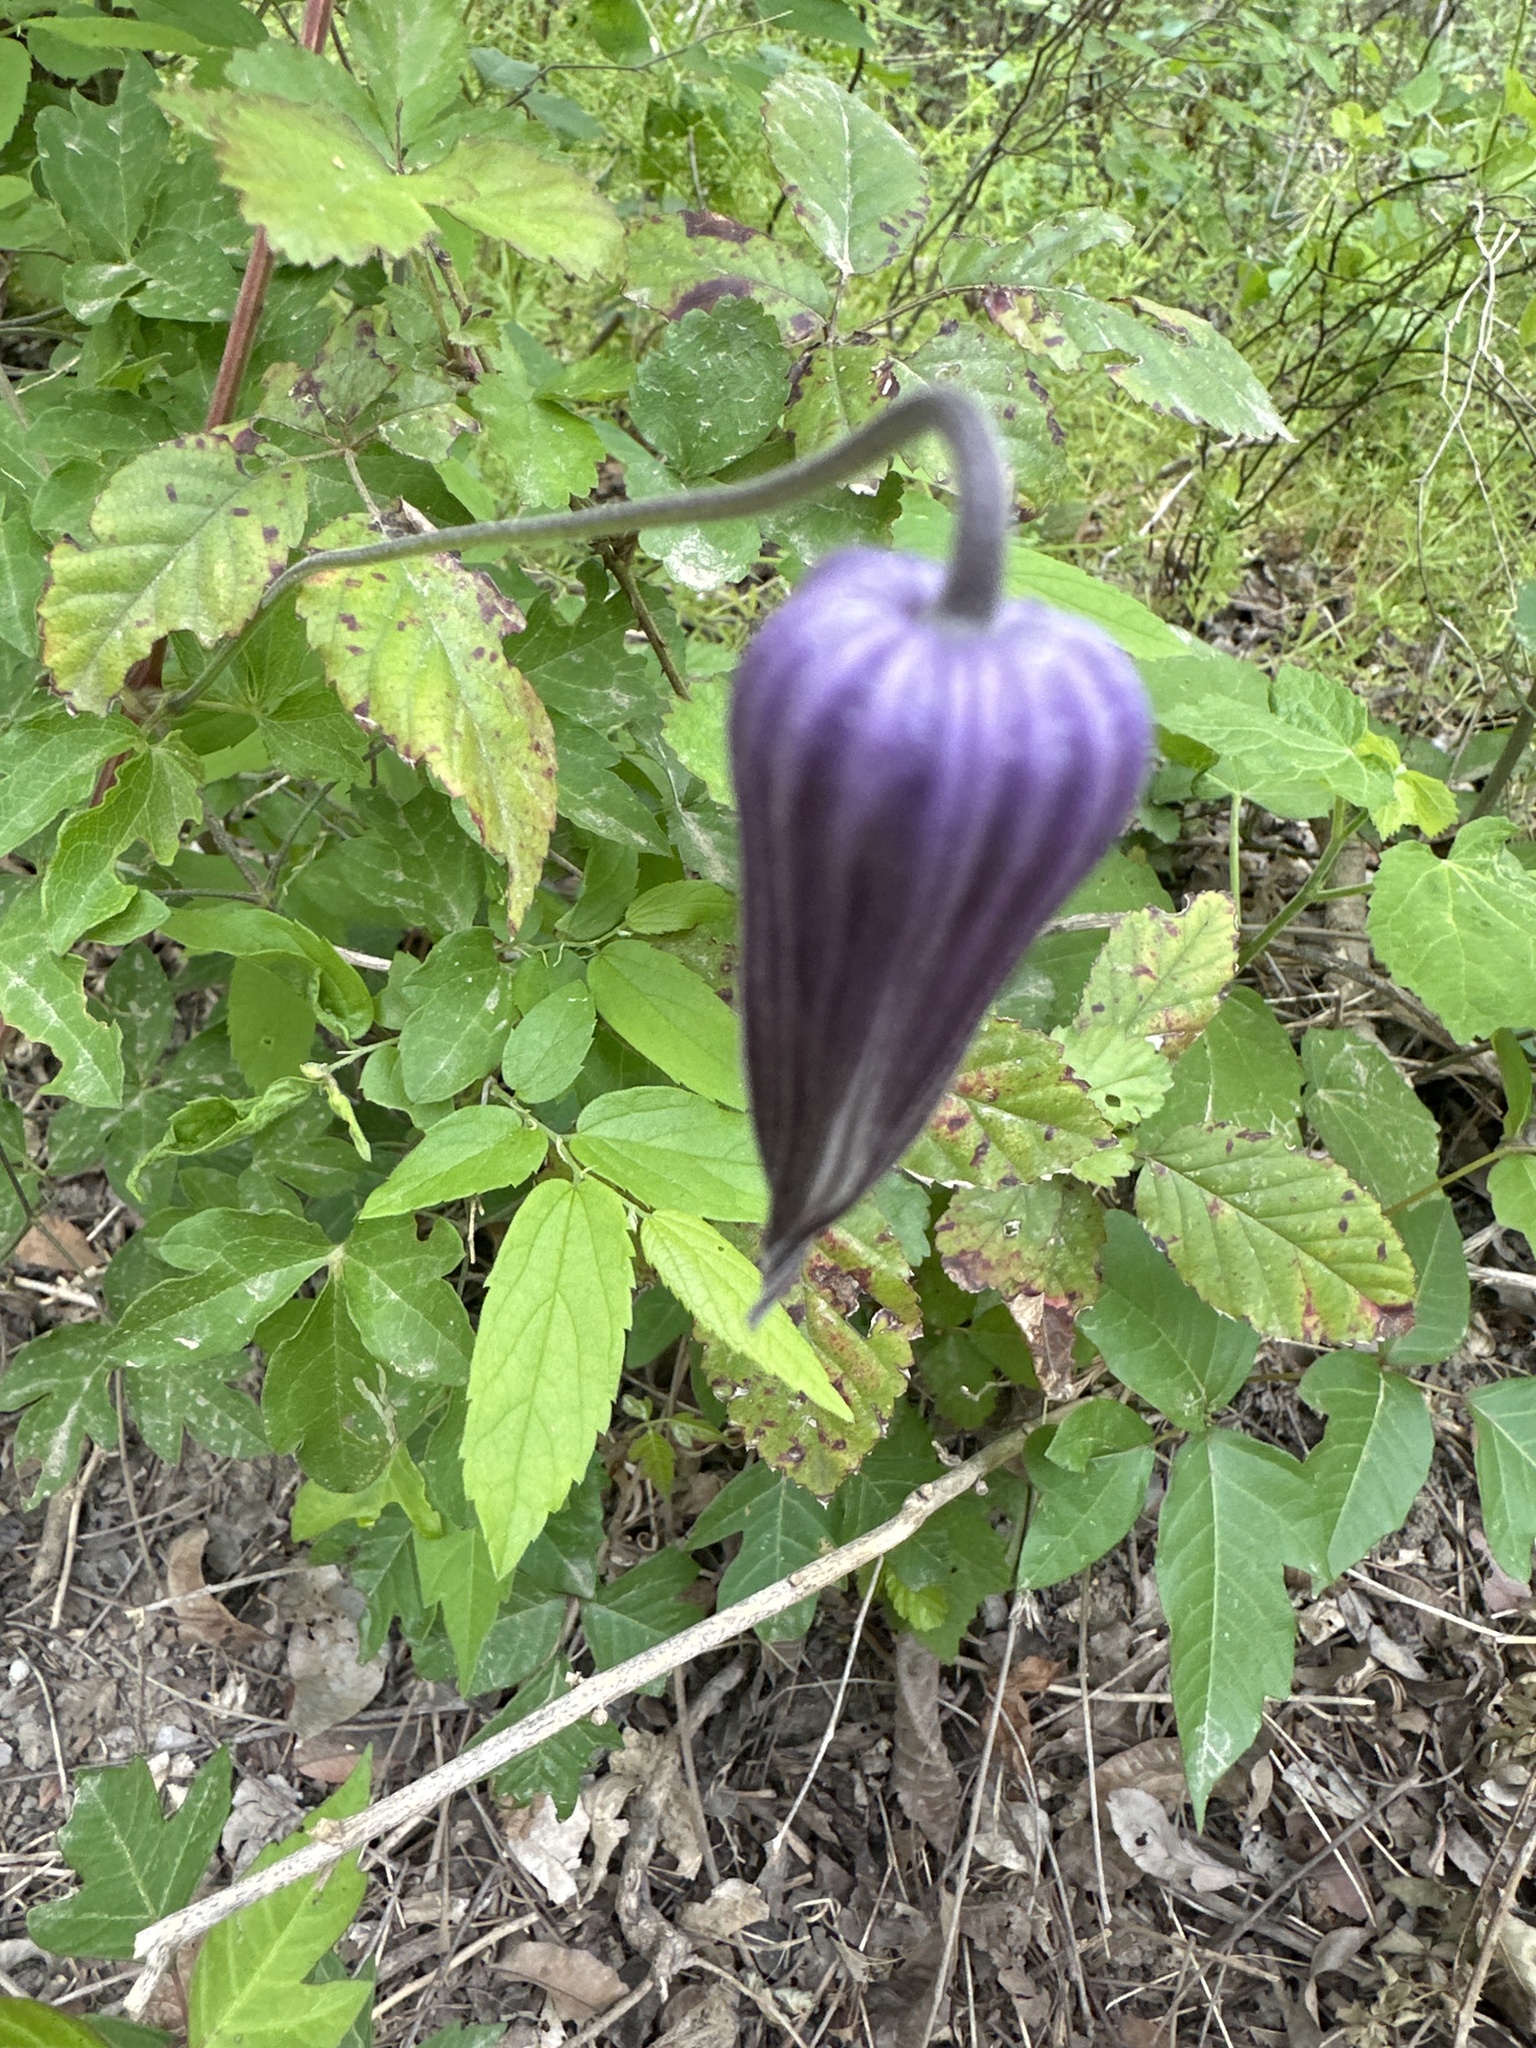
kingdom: Plantae
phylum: Tracheophyta
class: Magnoliopsida
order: Ranunculales
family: Ranunculaceae
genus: Clematis
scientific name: Clematis pitcheri
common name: Bellflower clematis
